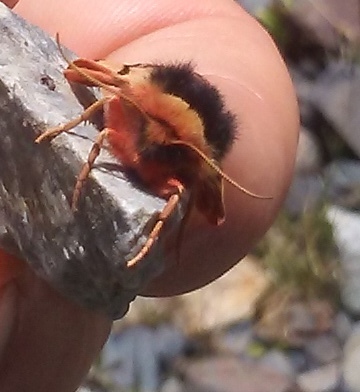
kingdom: Animalia
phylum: Arthropoda
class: Insecta
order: Lepidoptera
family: Erebidae
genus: Chelis
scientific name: Chelis brucei
